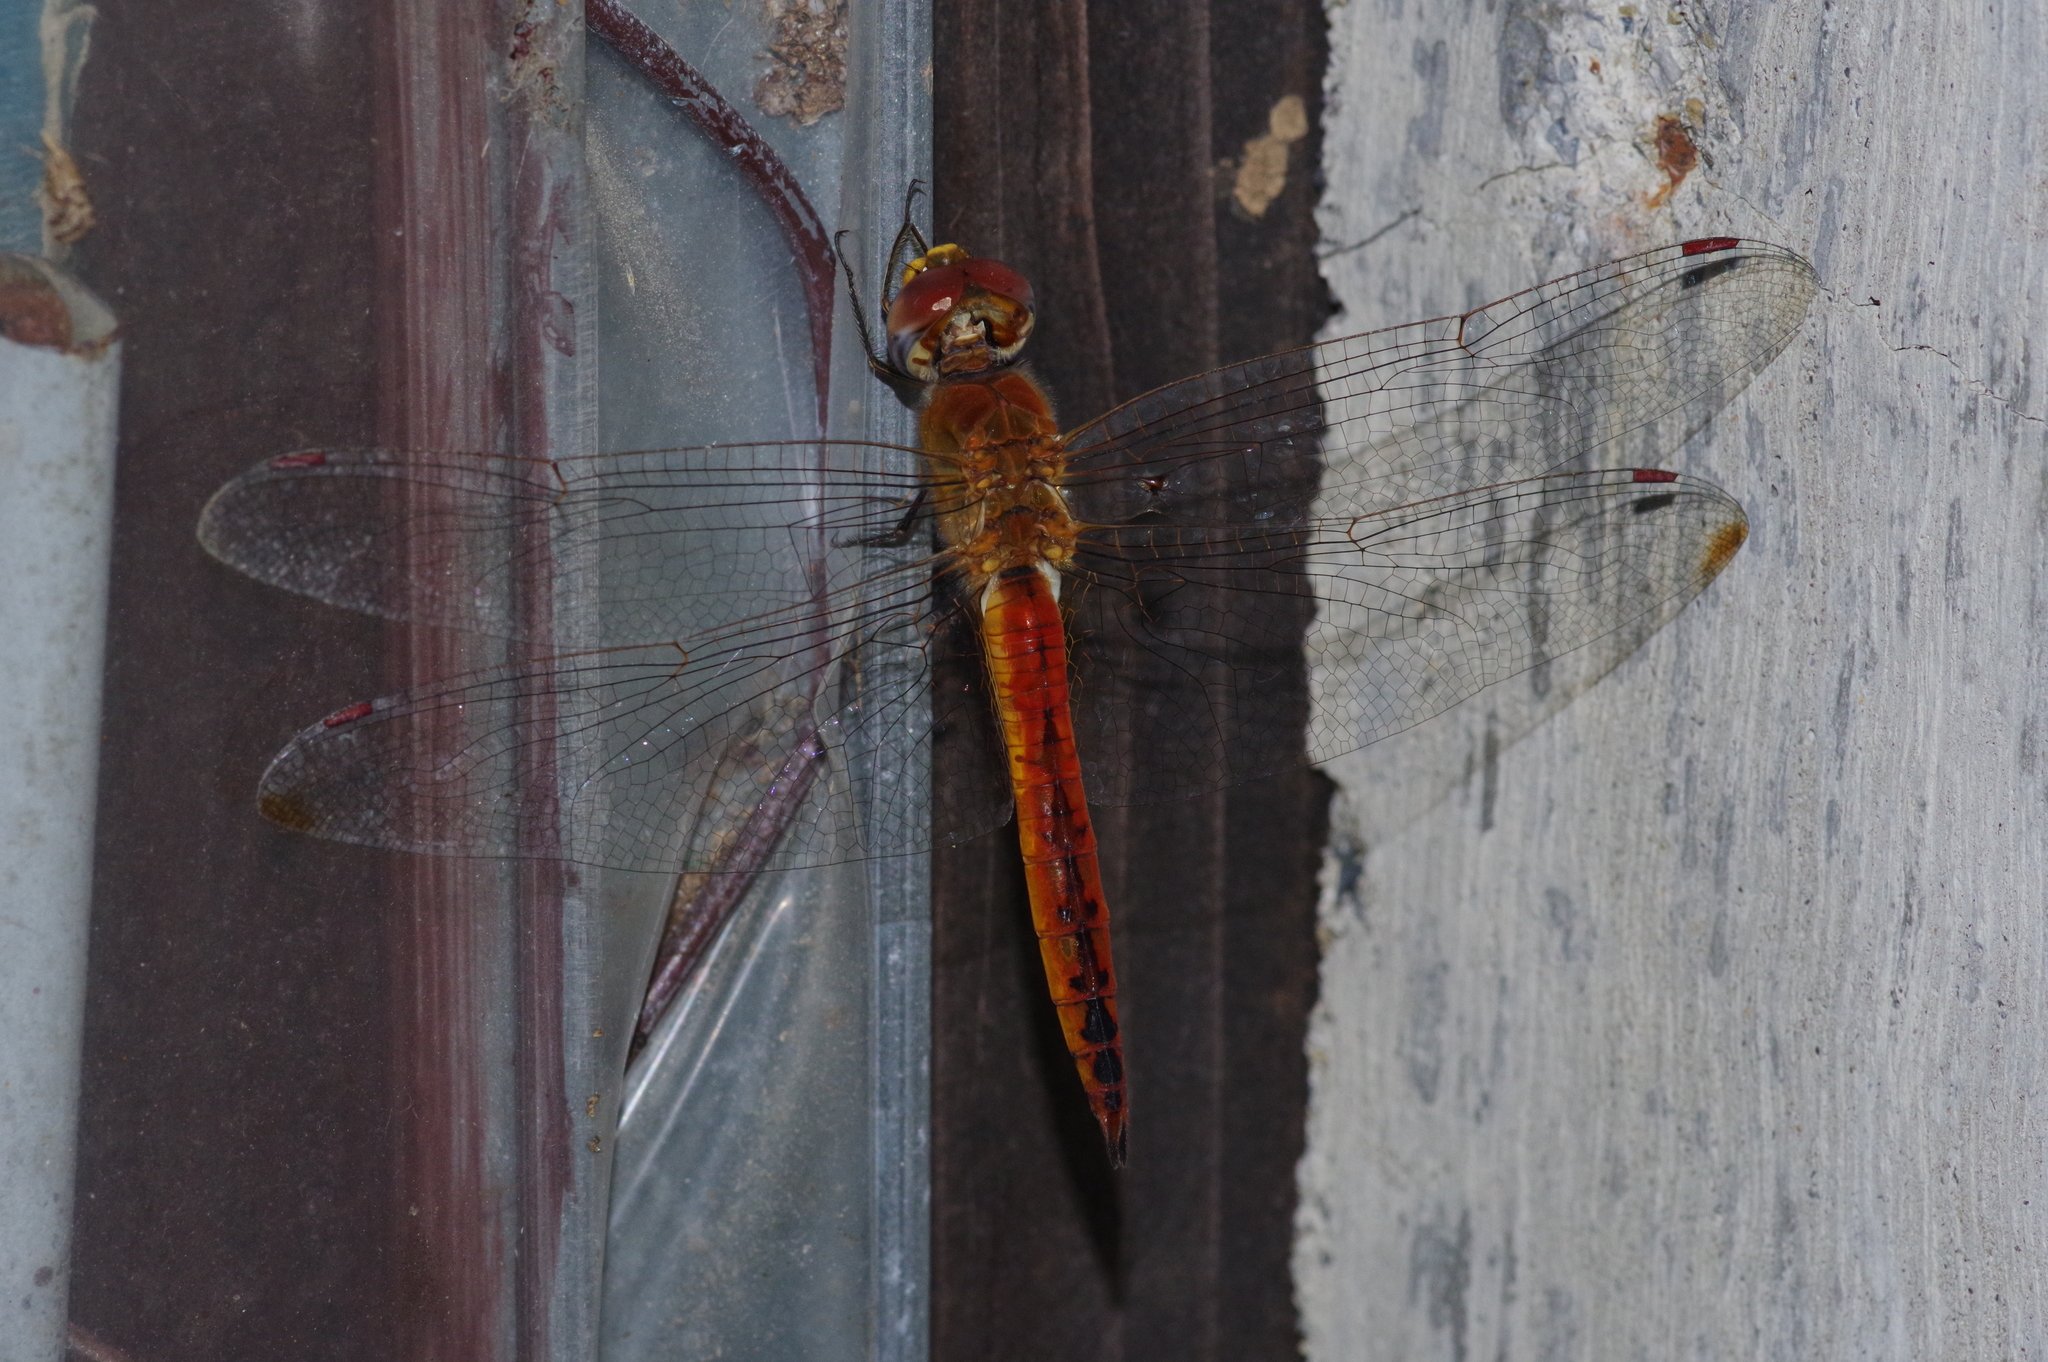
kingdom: Animalia
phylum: Arthropoda
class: Insecta
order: Odonata
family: Libellulidae
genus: Pantala
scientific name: Pantala flavescens
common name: Wandering glider
